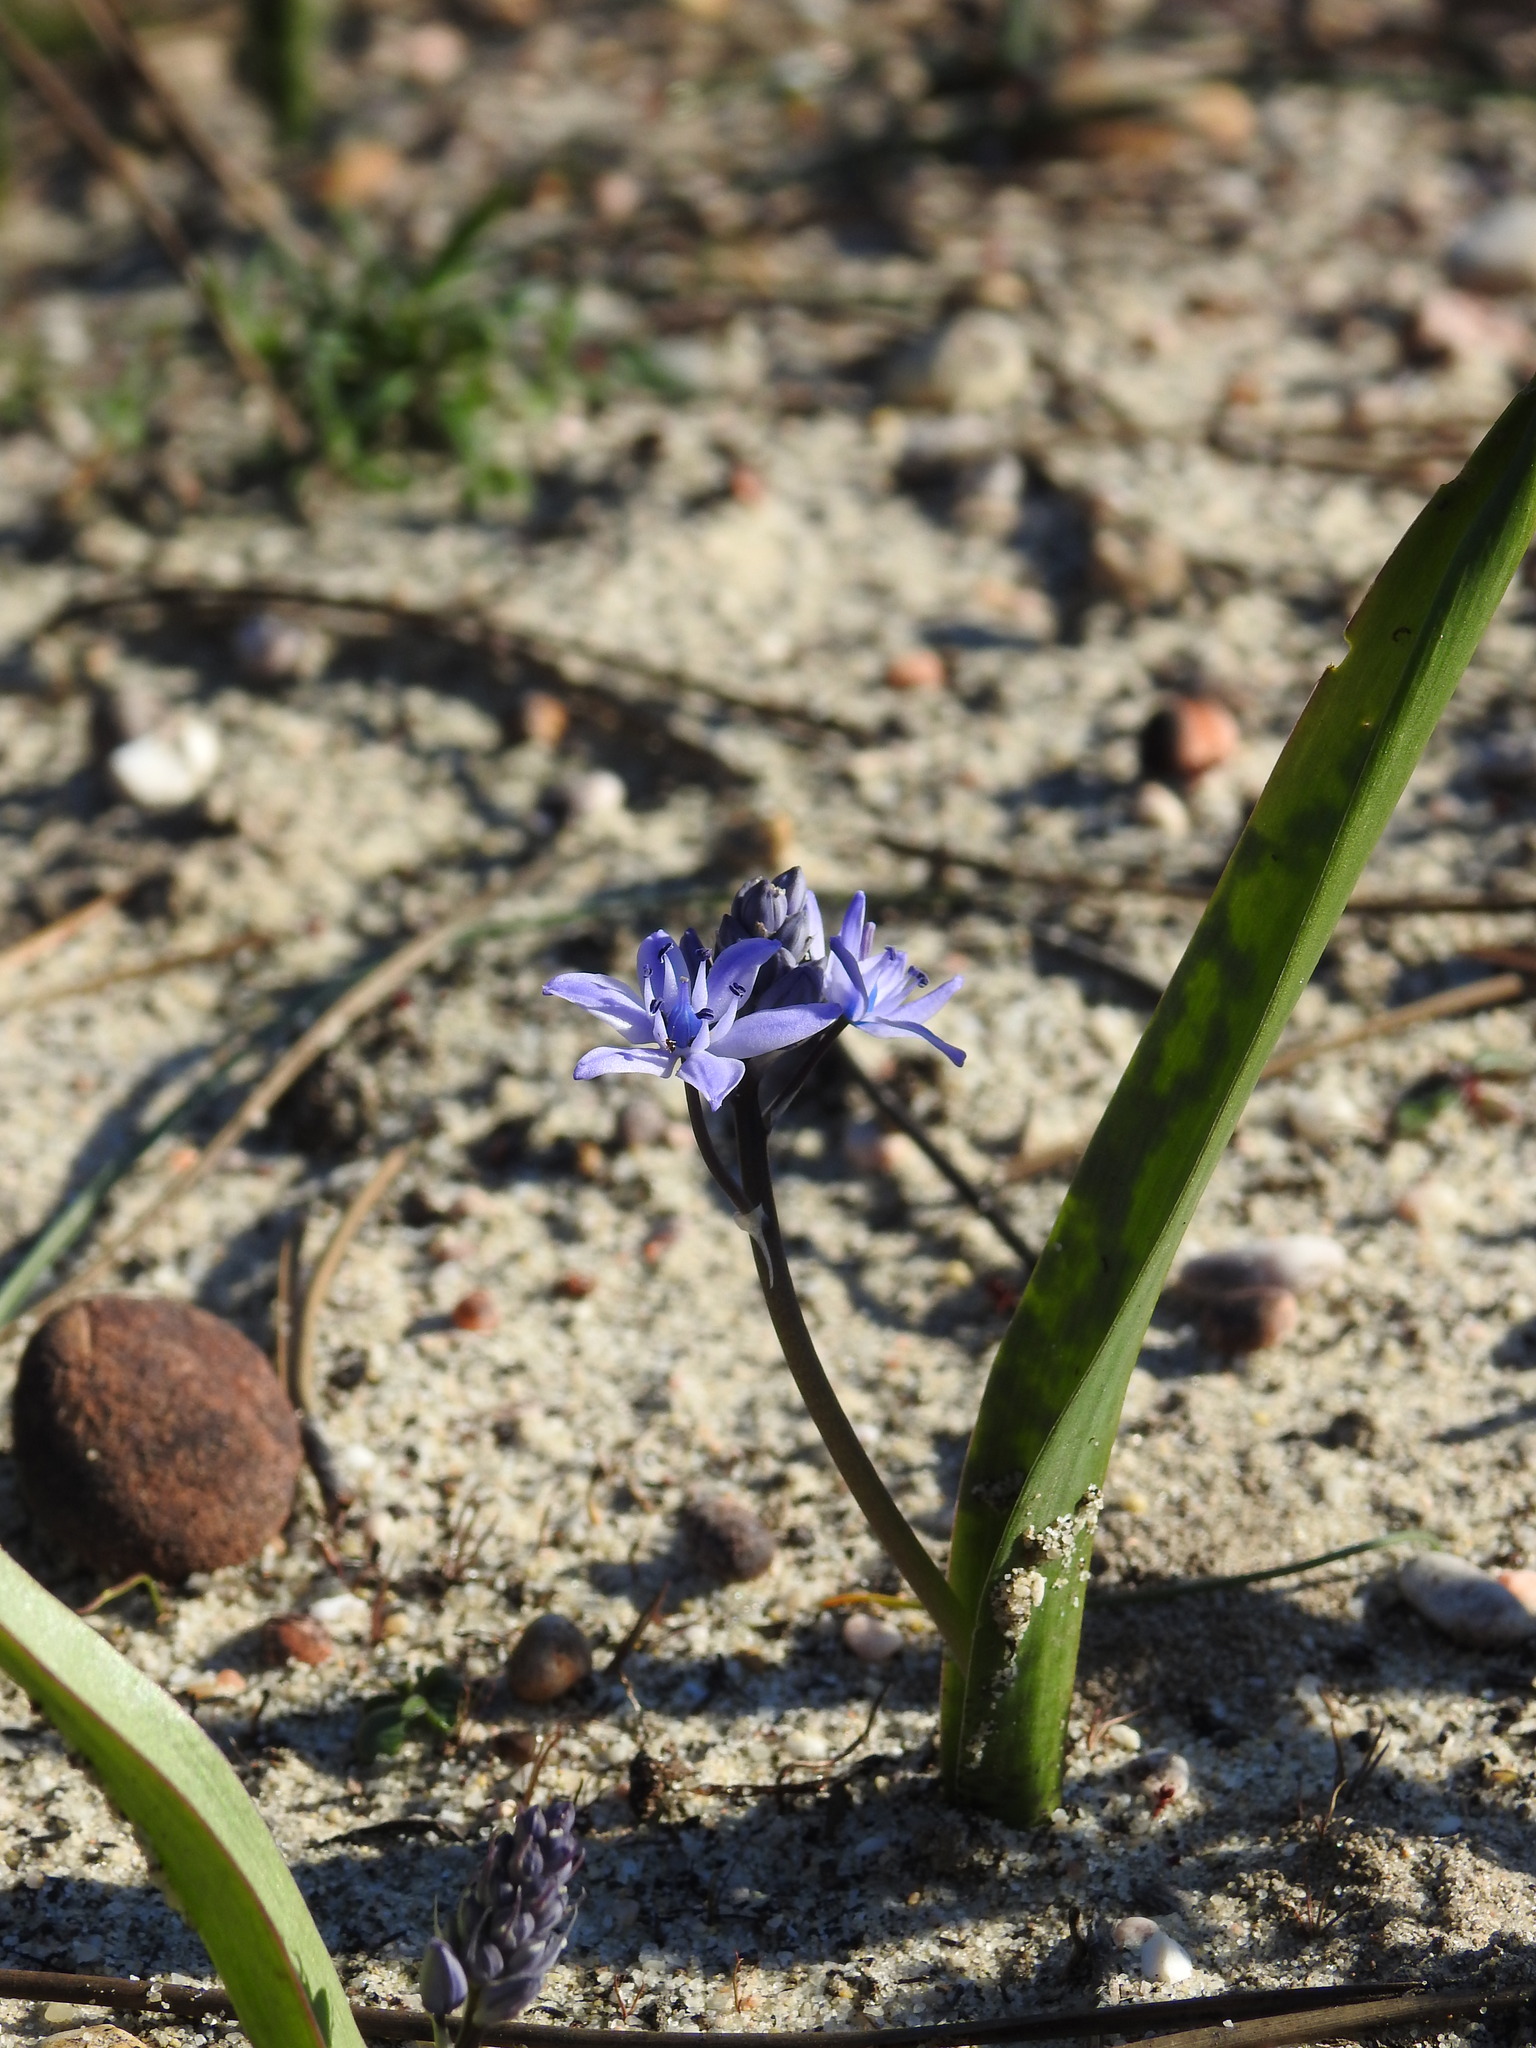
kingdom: Plantae
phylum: Tracheophyta
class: Liliopsida
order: Asparagales
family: Asparagaceae
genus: Scilla
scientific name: Scilla monophyllos
